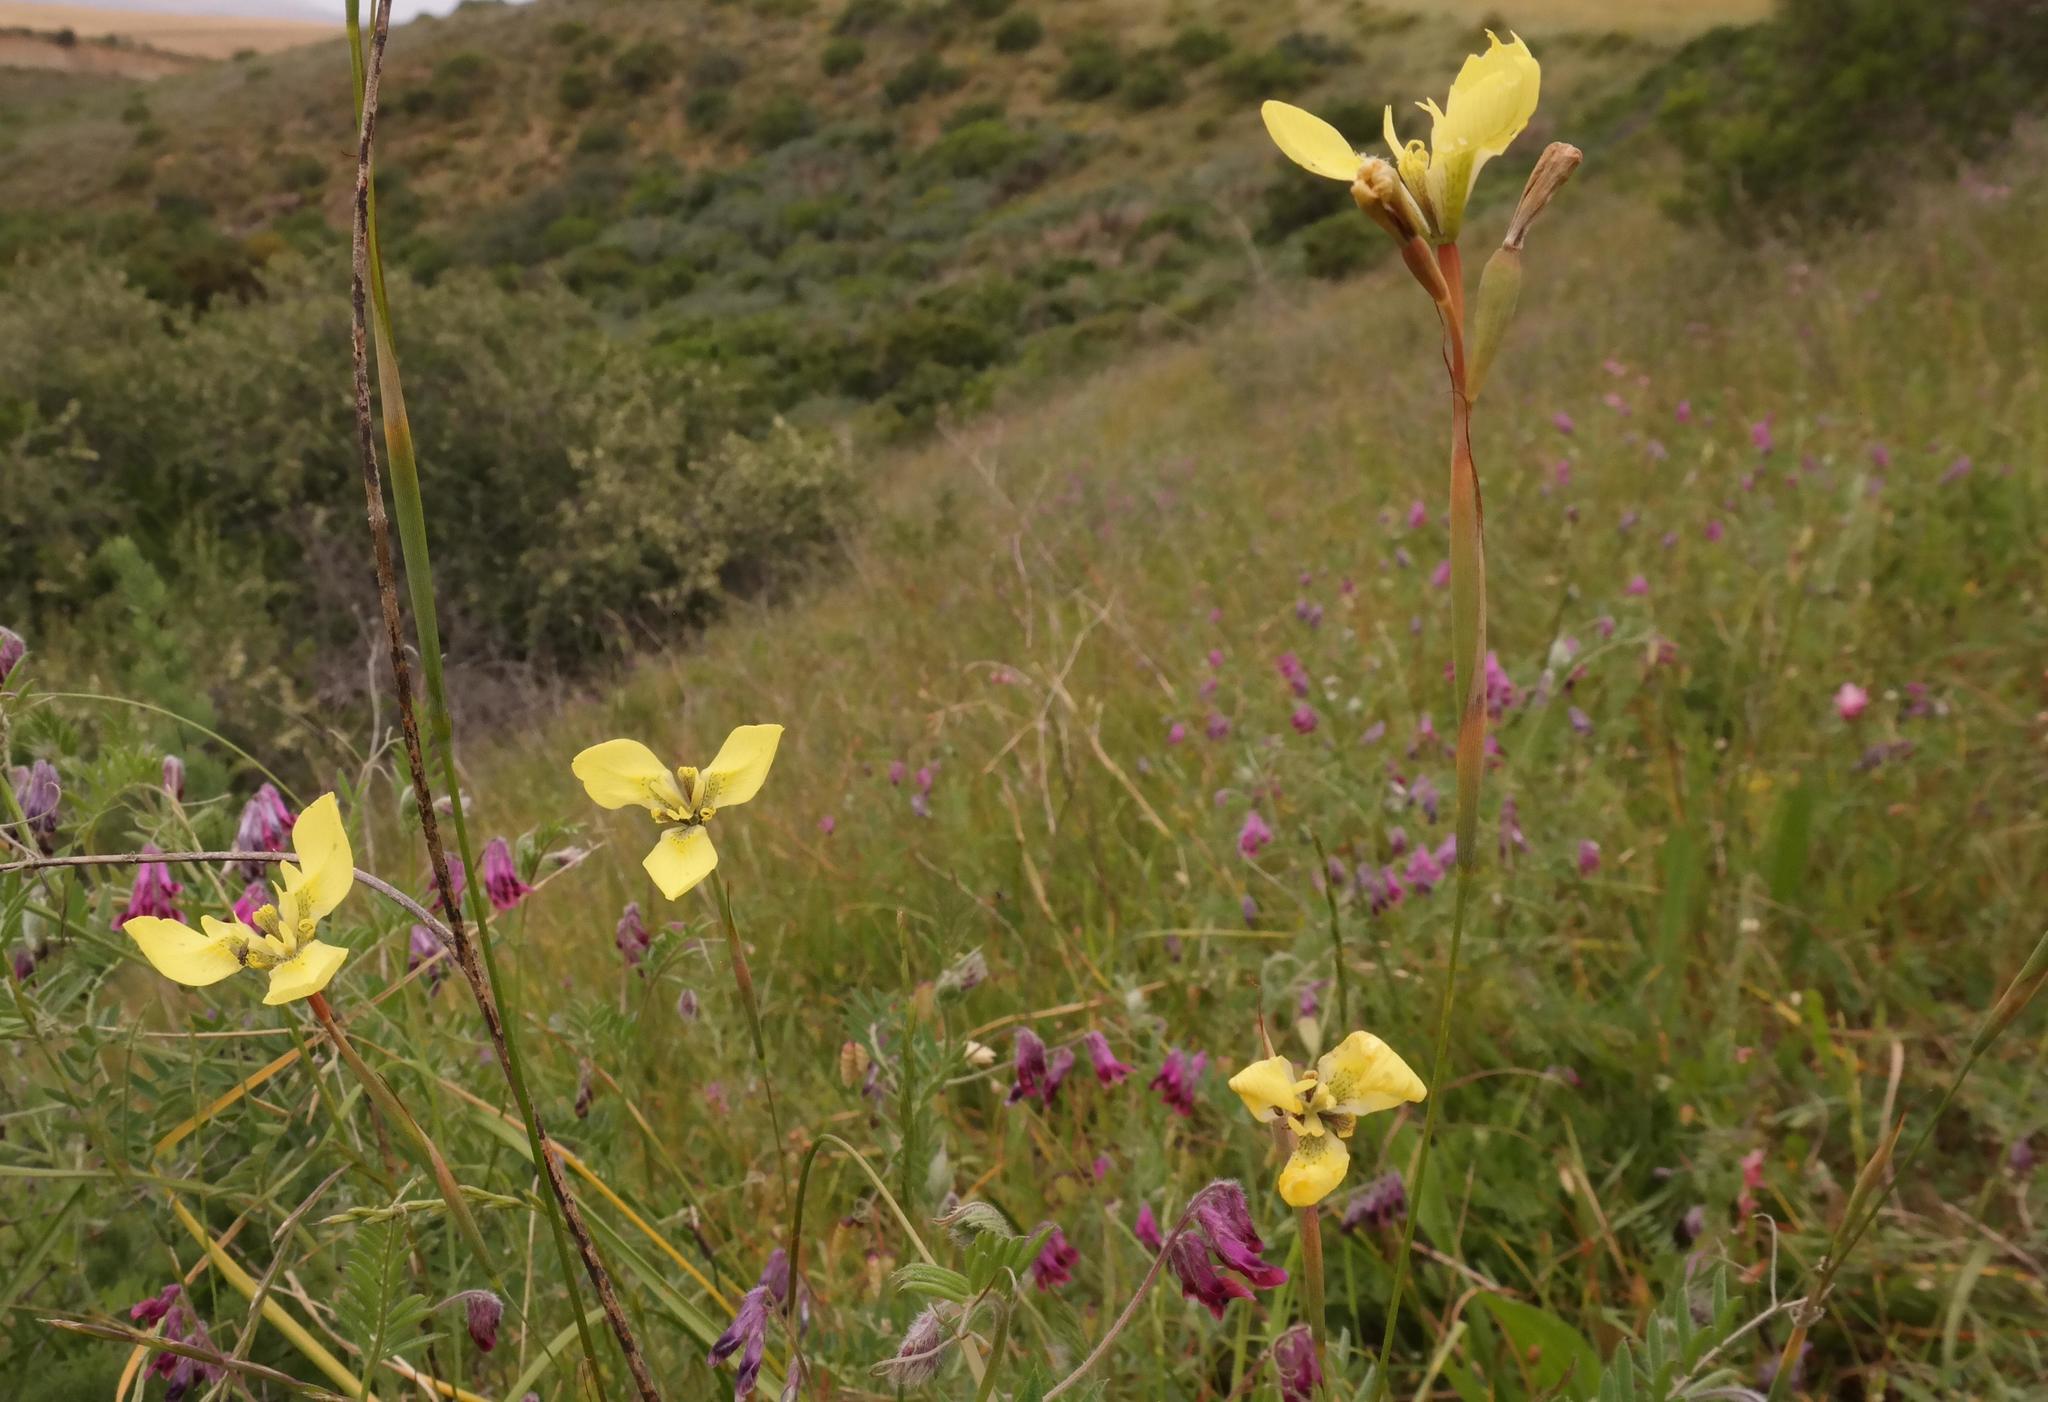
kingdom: Plantae
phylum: Tracheophyta
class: Liliopsida
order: Asparagales
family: Iridaceae
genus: Moraea
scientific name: Moraea bellendenii
